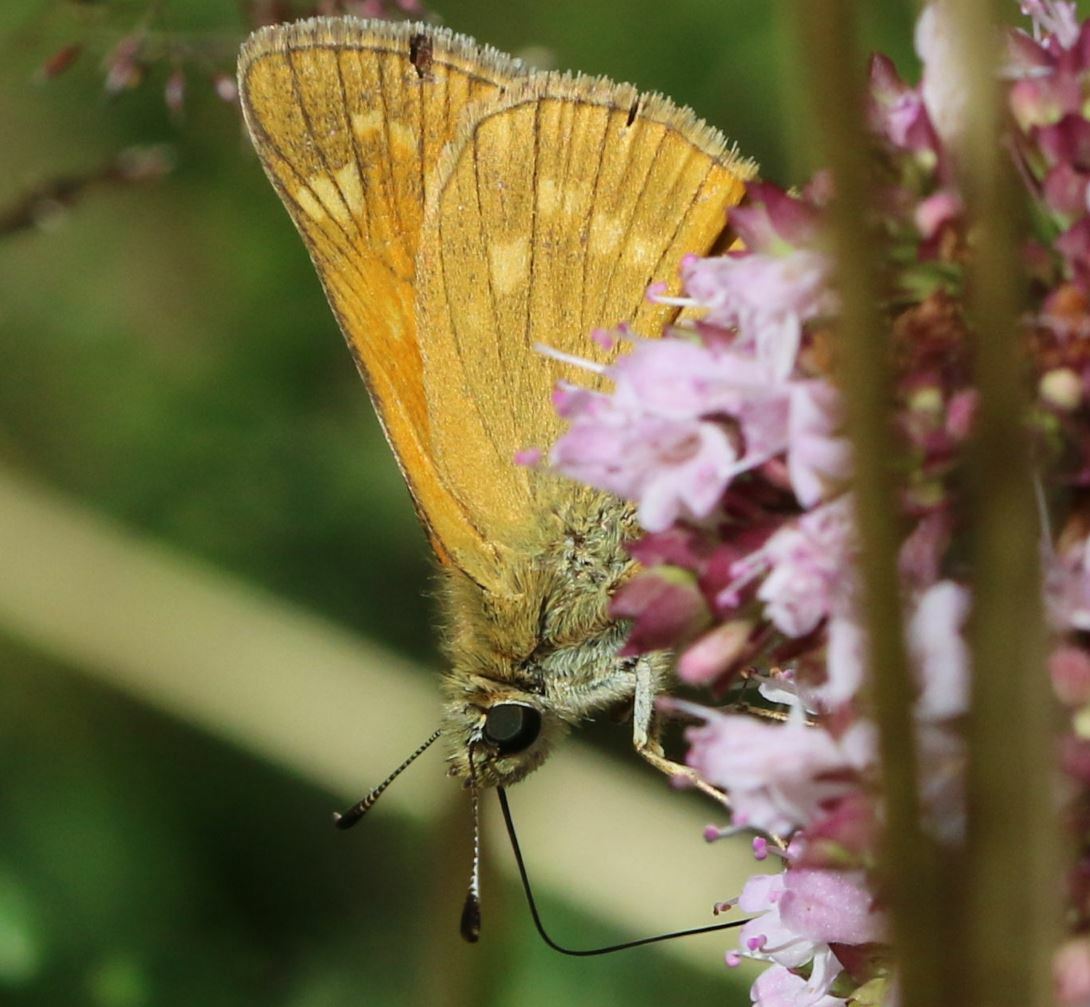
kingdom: Animalia
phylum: Arthropoda
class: Insecta
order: Lepidoptera
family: Hesperiidae
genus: Ochlodes
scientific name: Ochlodes venata
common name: Large skipper
